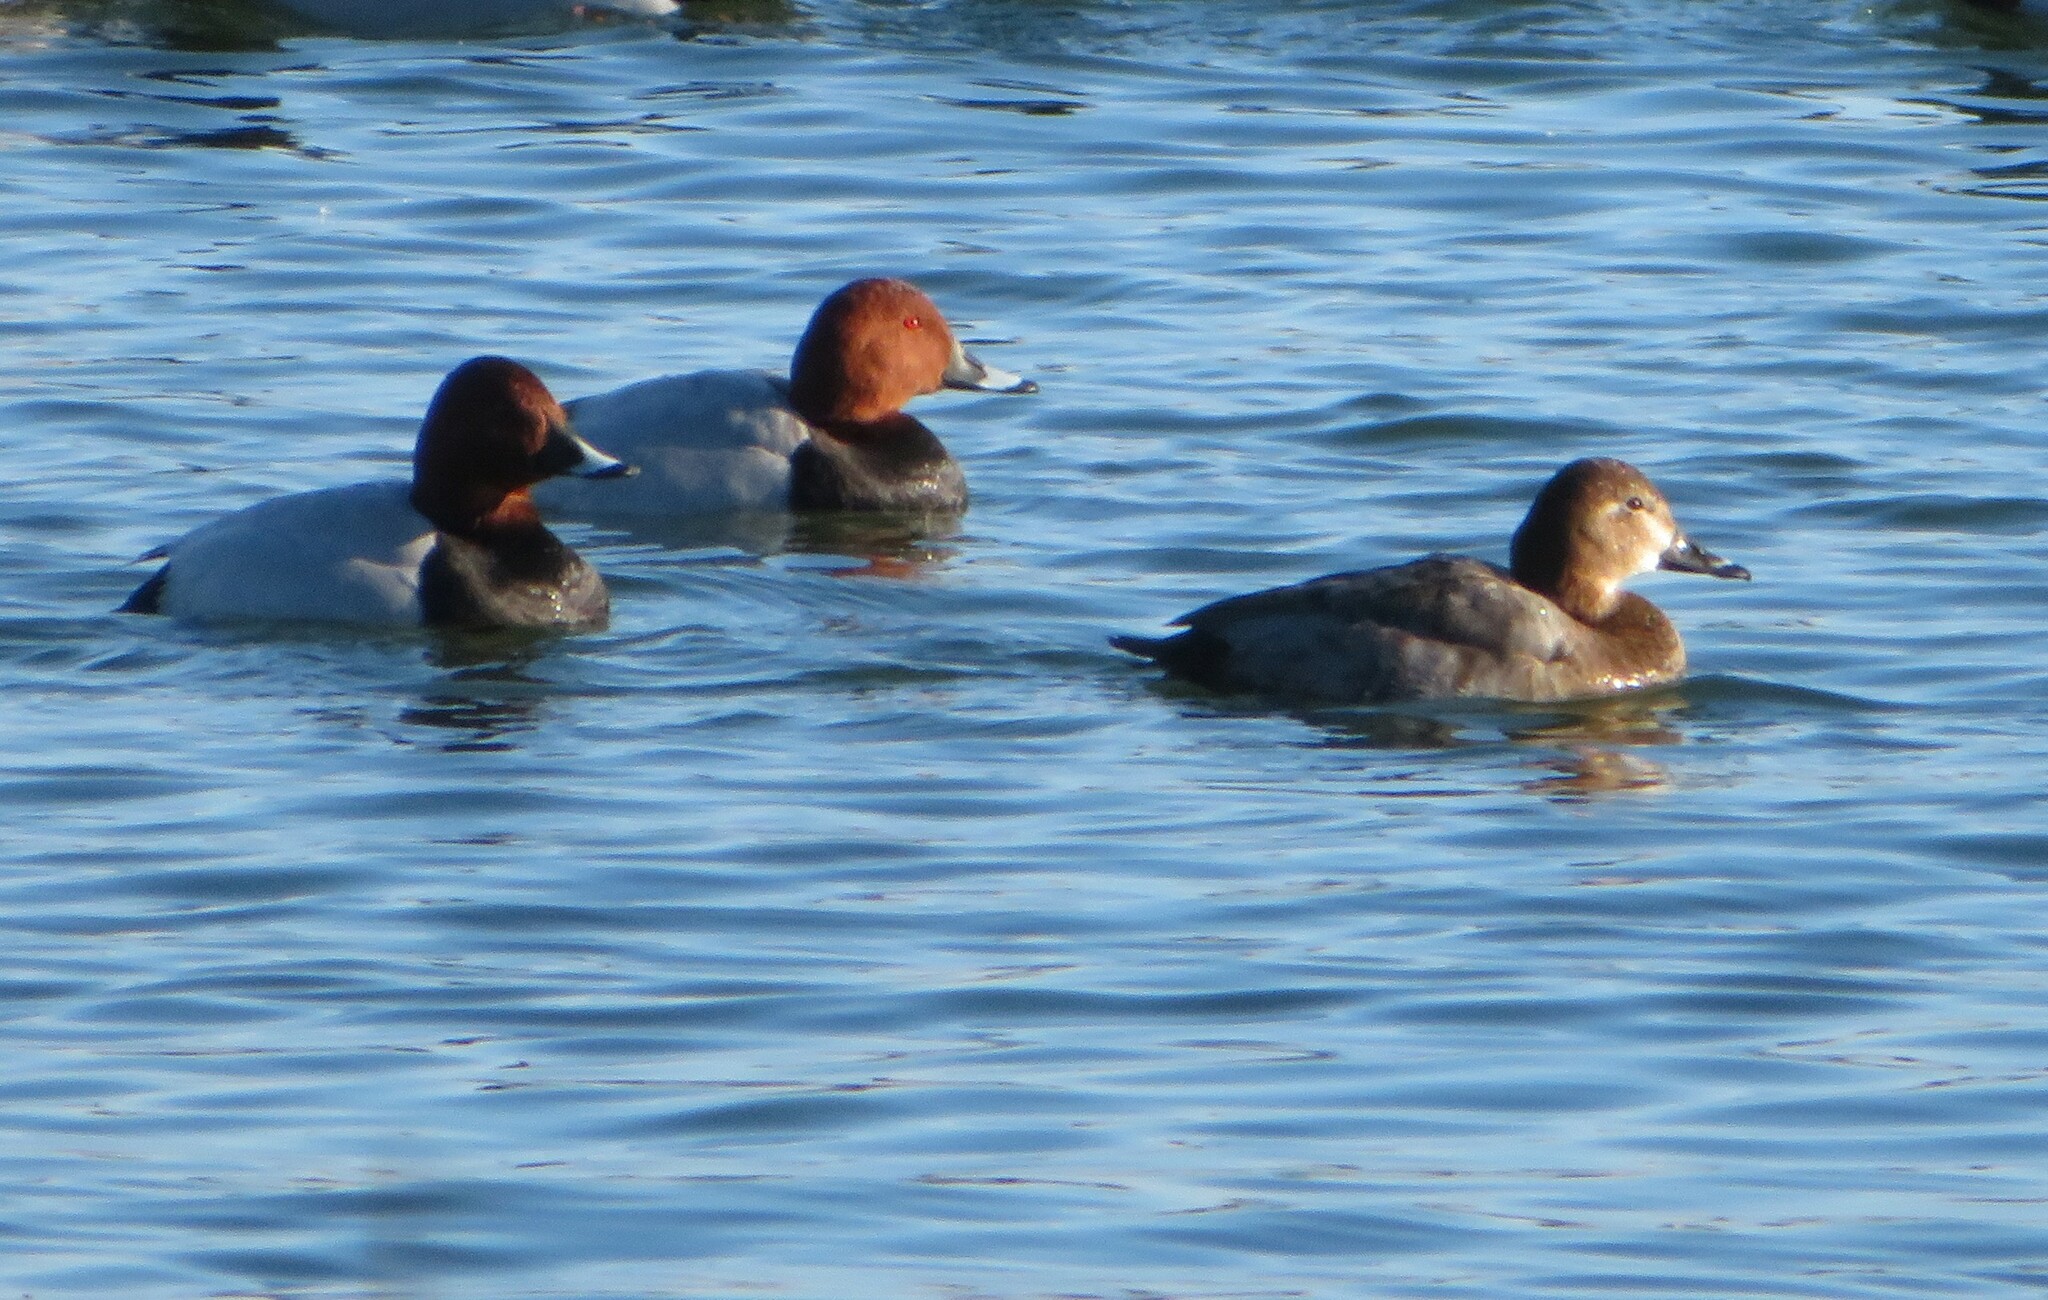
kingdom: Animalia
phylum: Chordata
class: Aves
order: Anseriformes
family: Anatidae
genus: Aythya
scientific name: Aythya ferina
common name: Common pochard
